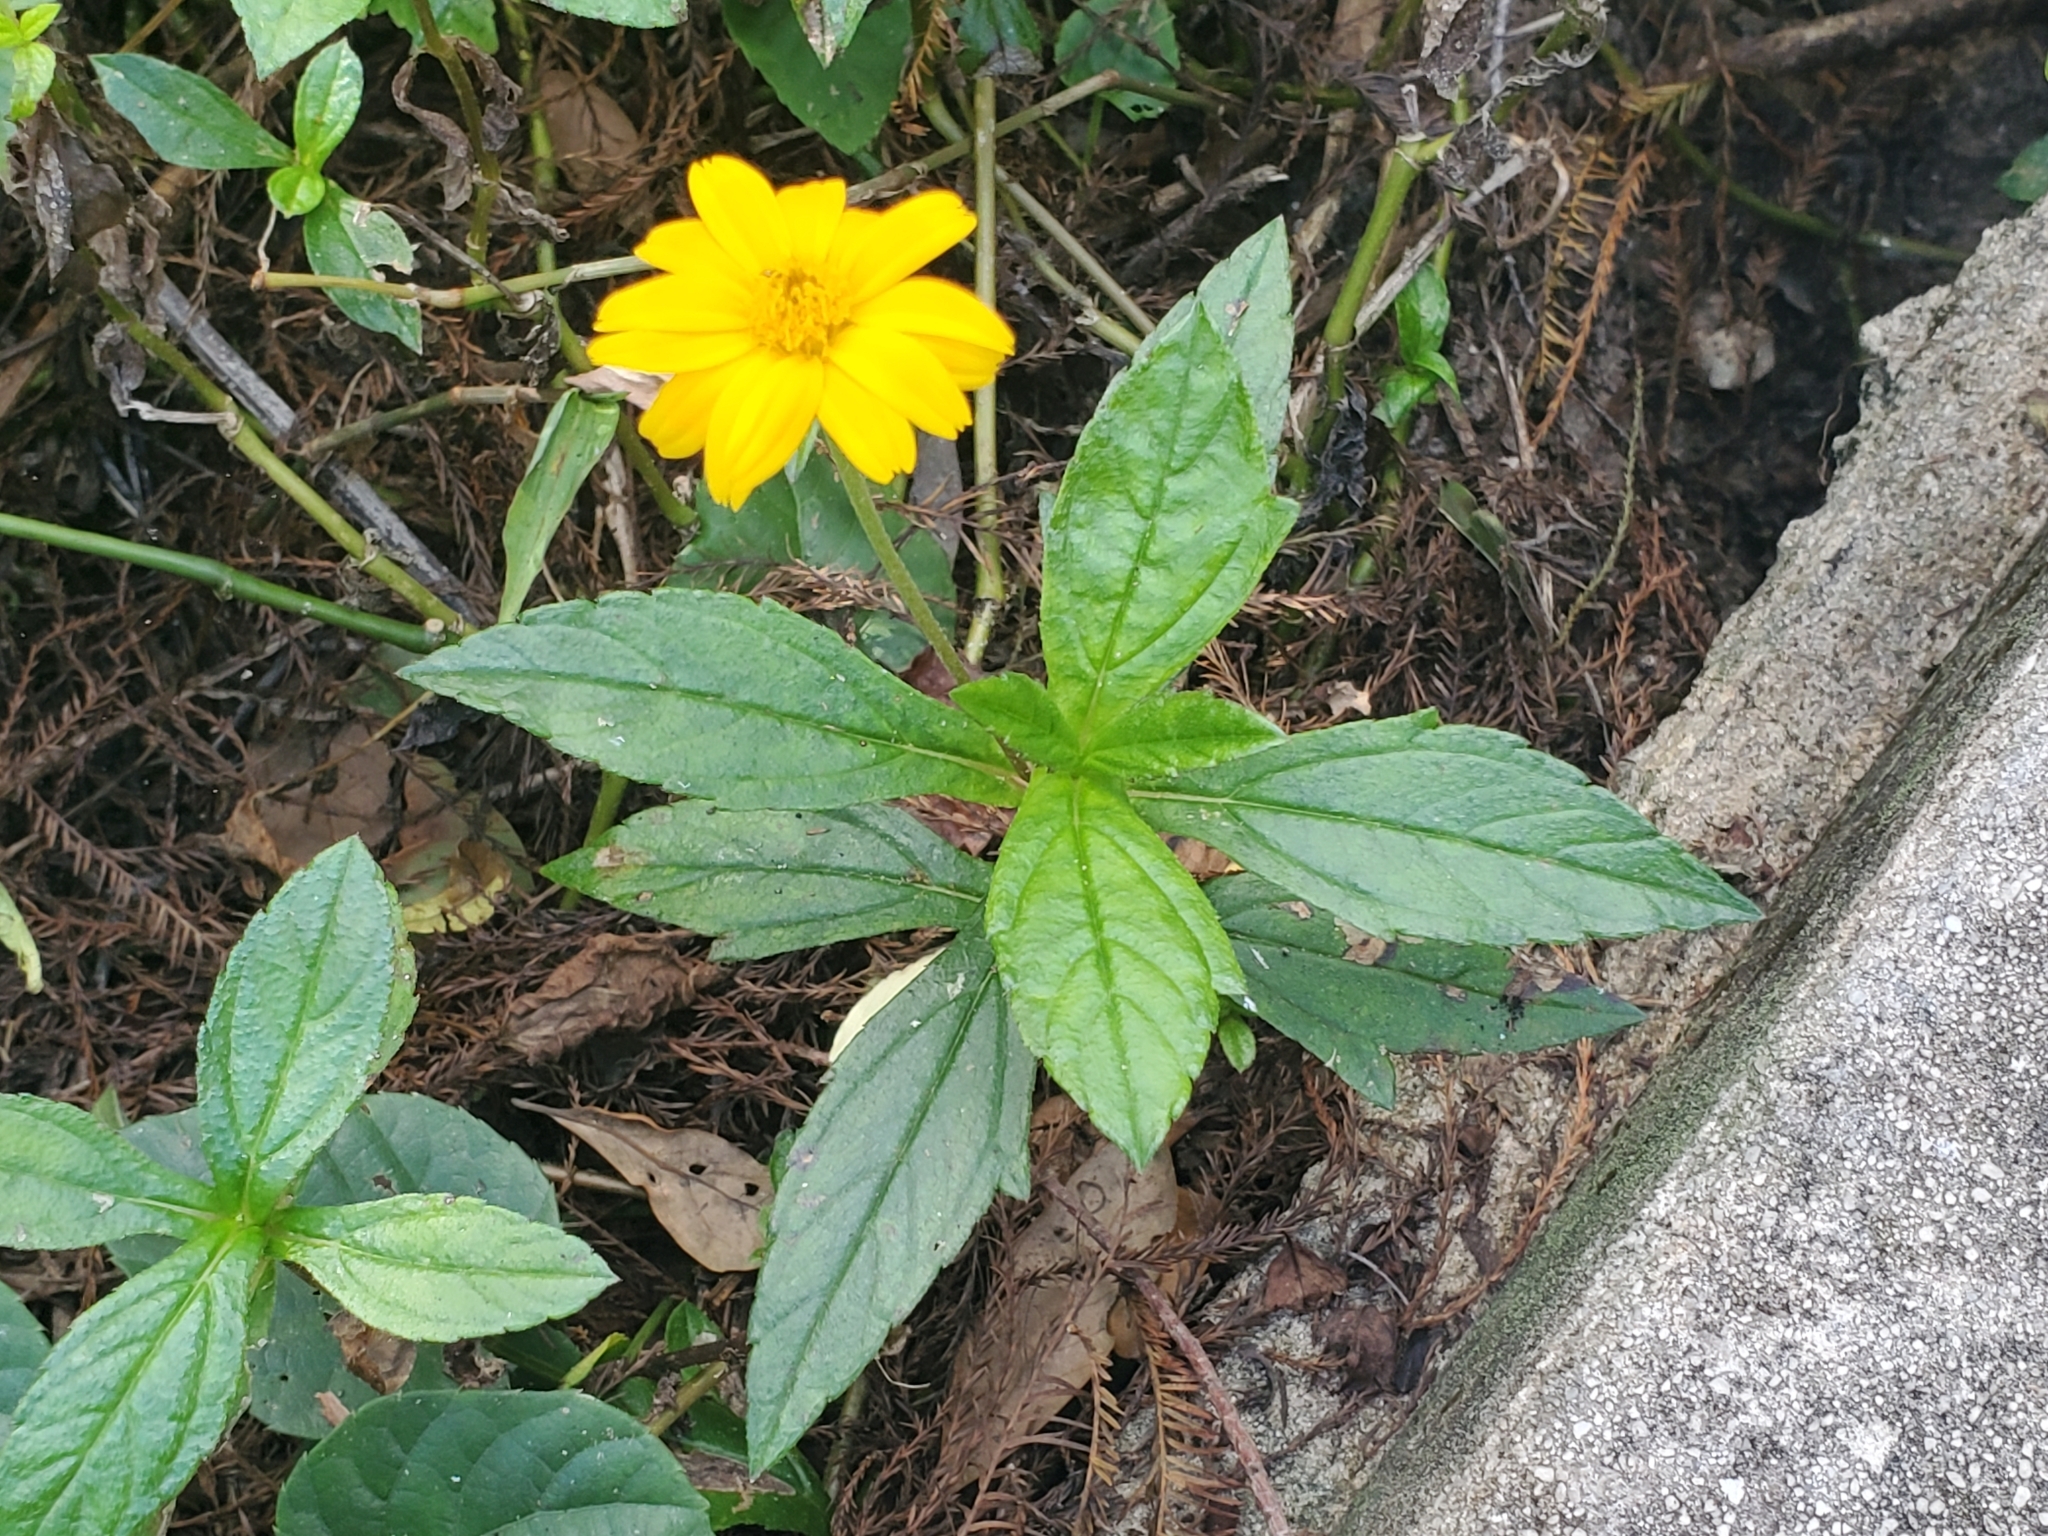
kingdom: Plantae
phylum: Tracheophyta
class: Magnoliopsida
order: Asterales
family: Asteraceae
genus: Sphagneticola
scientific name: Sphagneticola trilobata
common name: Bay biscayne creeping-oxeye
